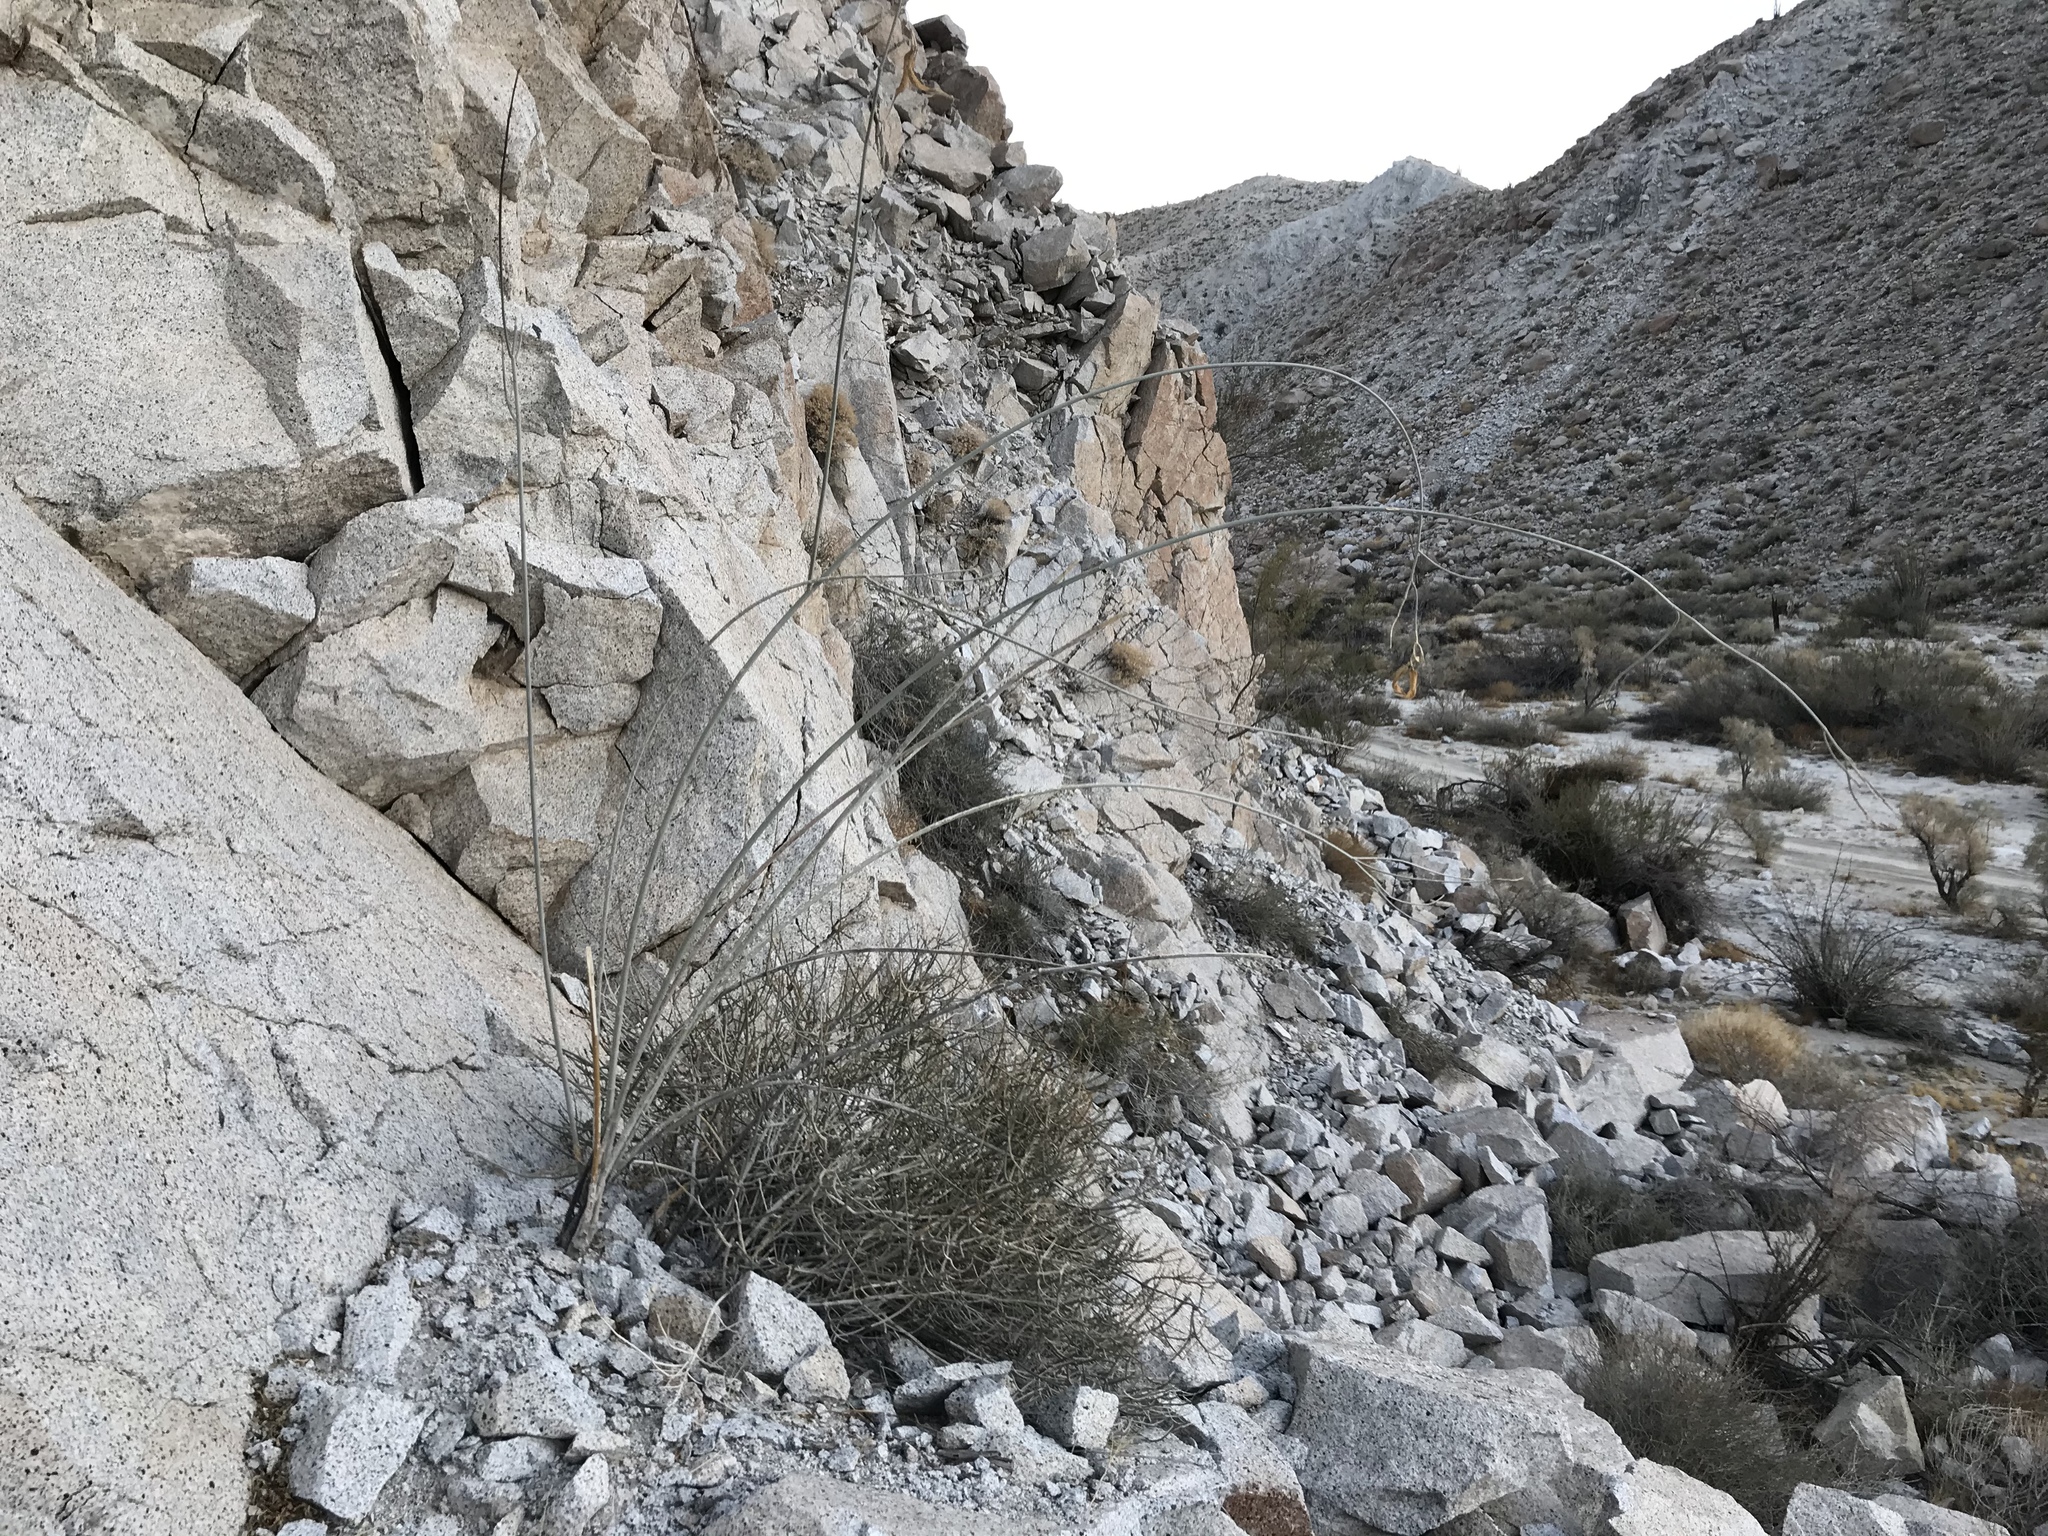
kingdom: Plantae
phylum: Tracheophyta
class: Magnoliopsida
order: Gentianales
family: Apocynaceae
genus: Asclepias
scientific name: Asclepias albicans
